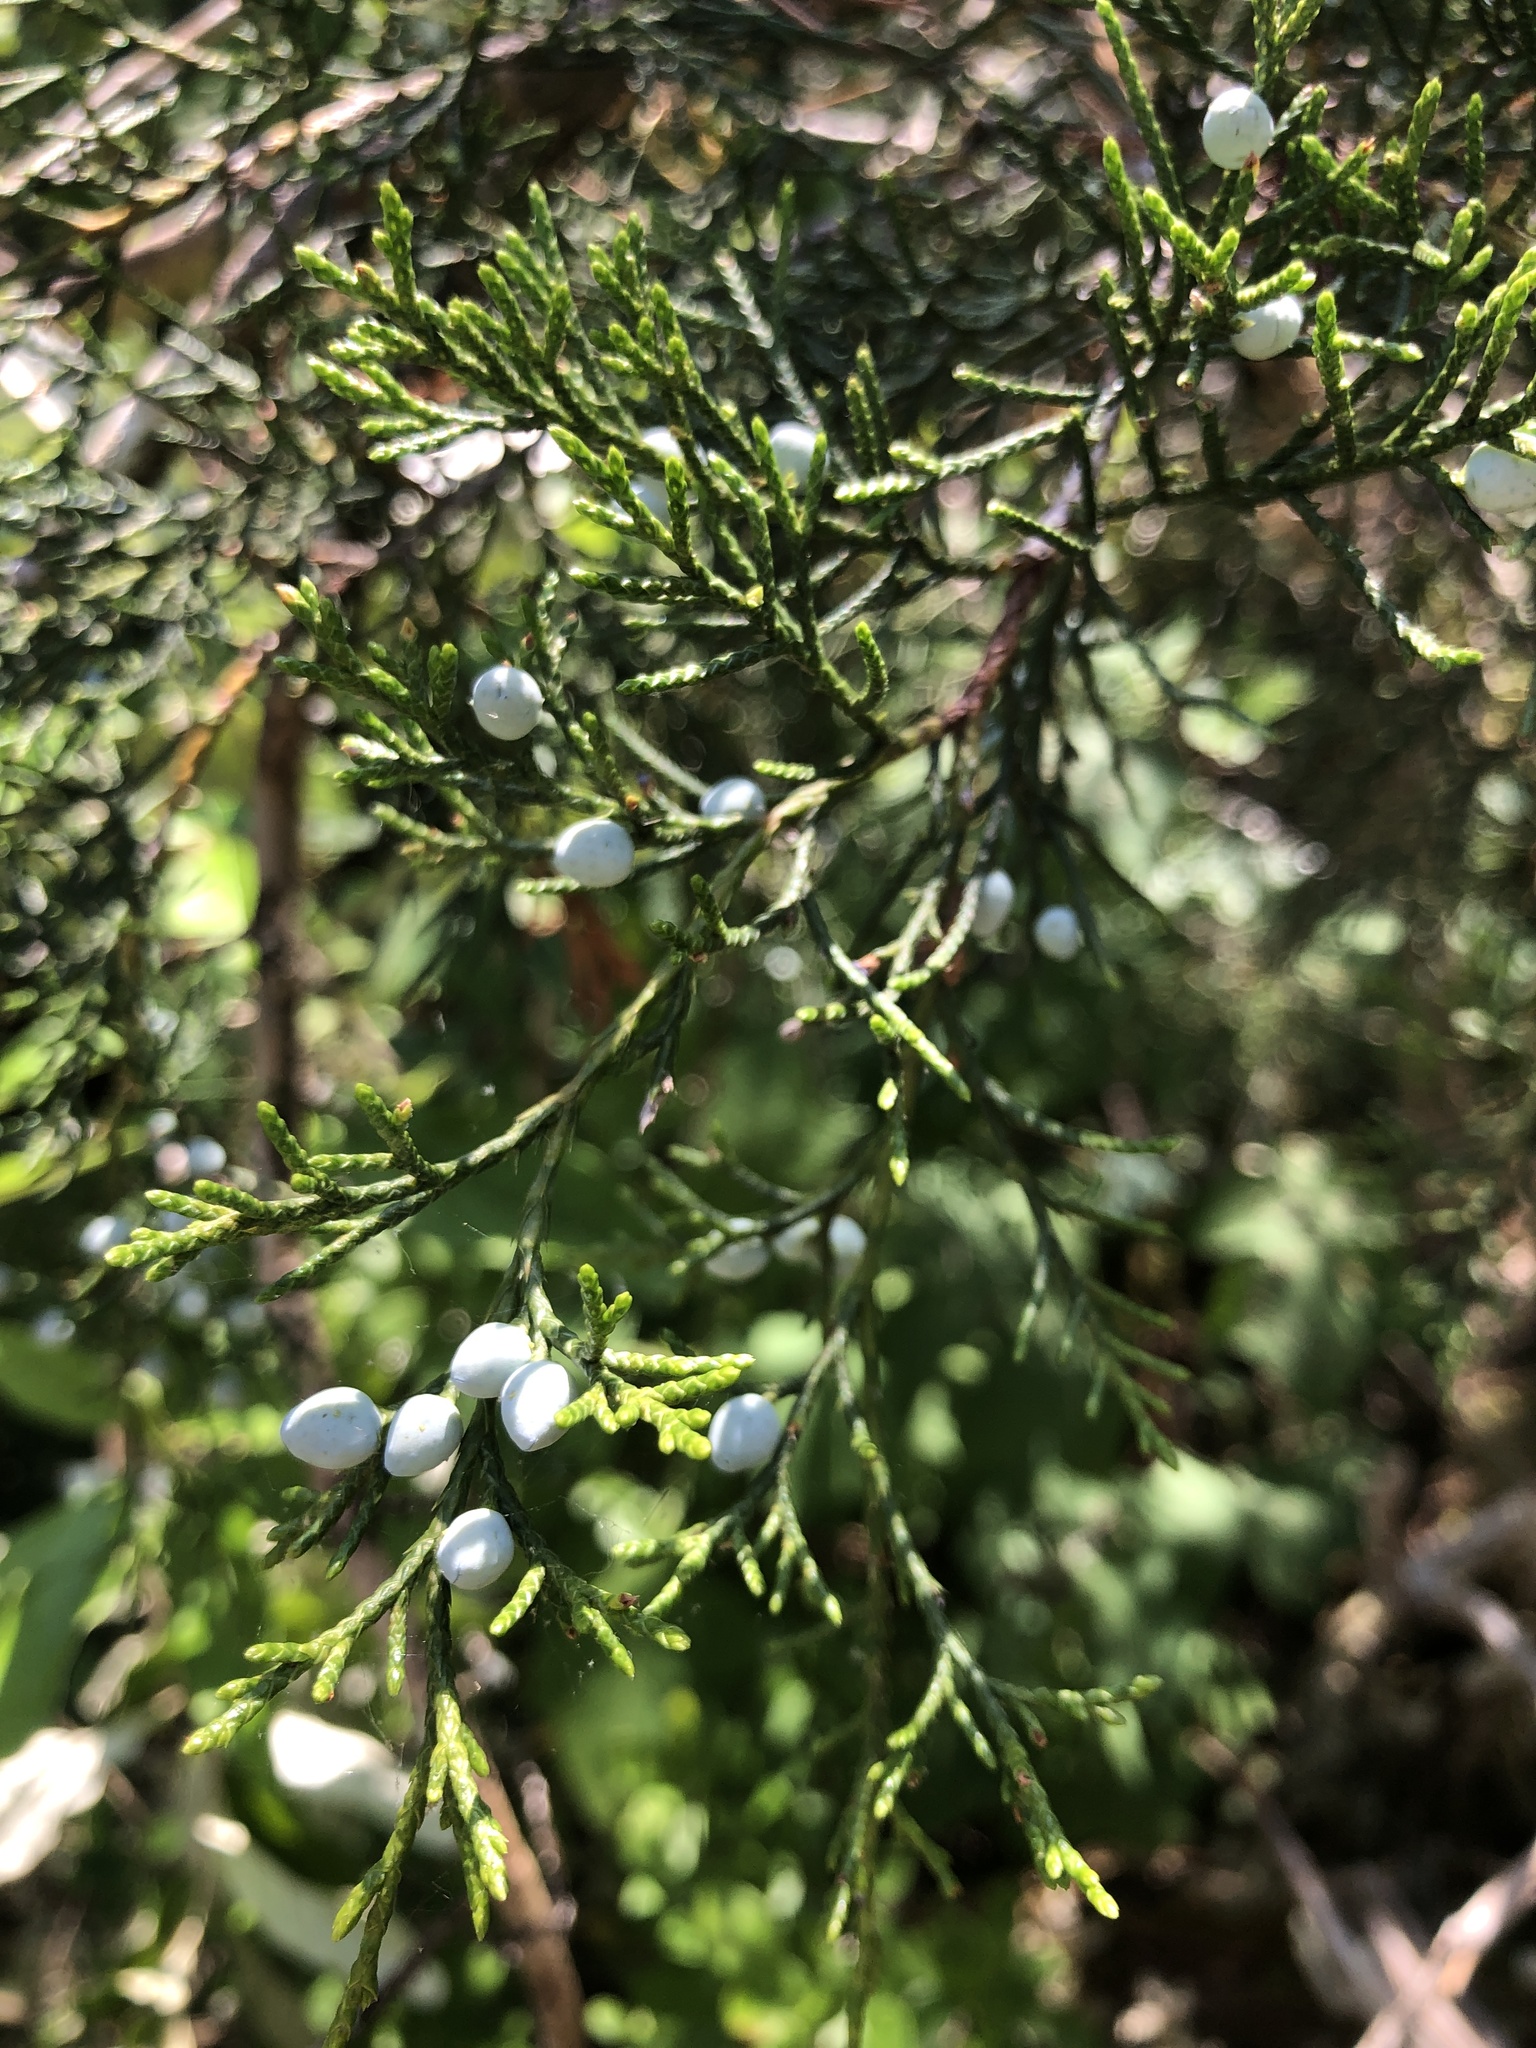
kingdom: Plantae
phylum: Tracheophyta
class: Pinopsida
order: Pinales
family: Cupressaceae
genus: Juniperus
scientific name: Juniperus virginiana
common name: Red juniper
